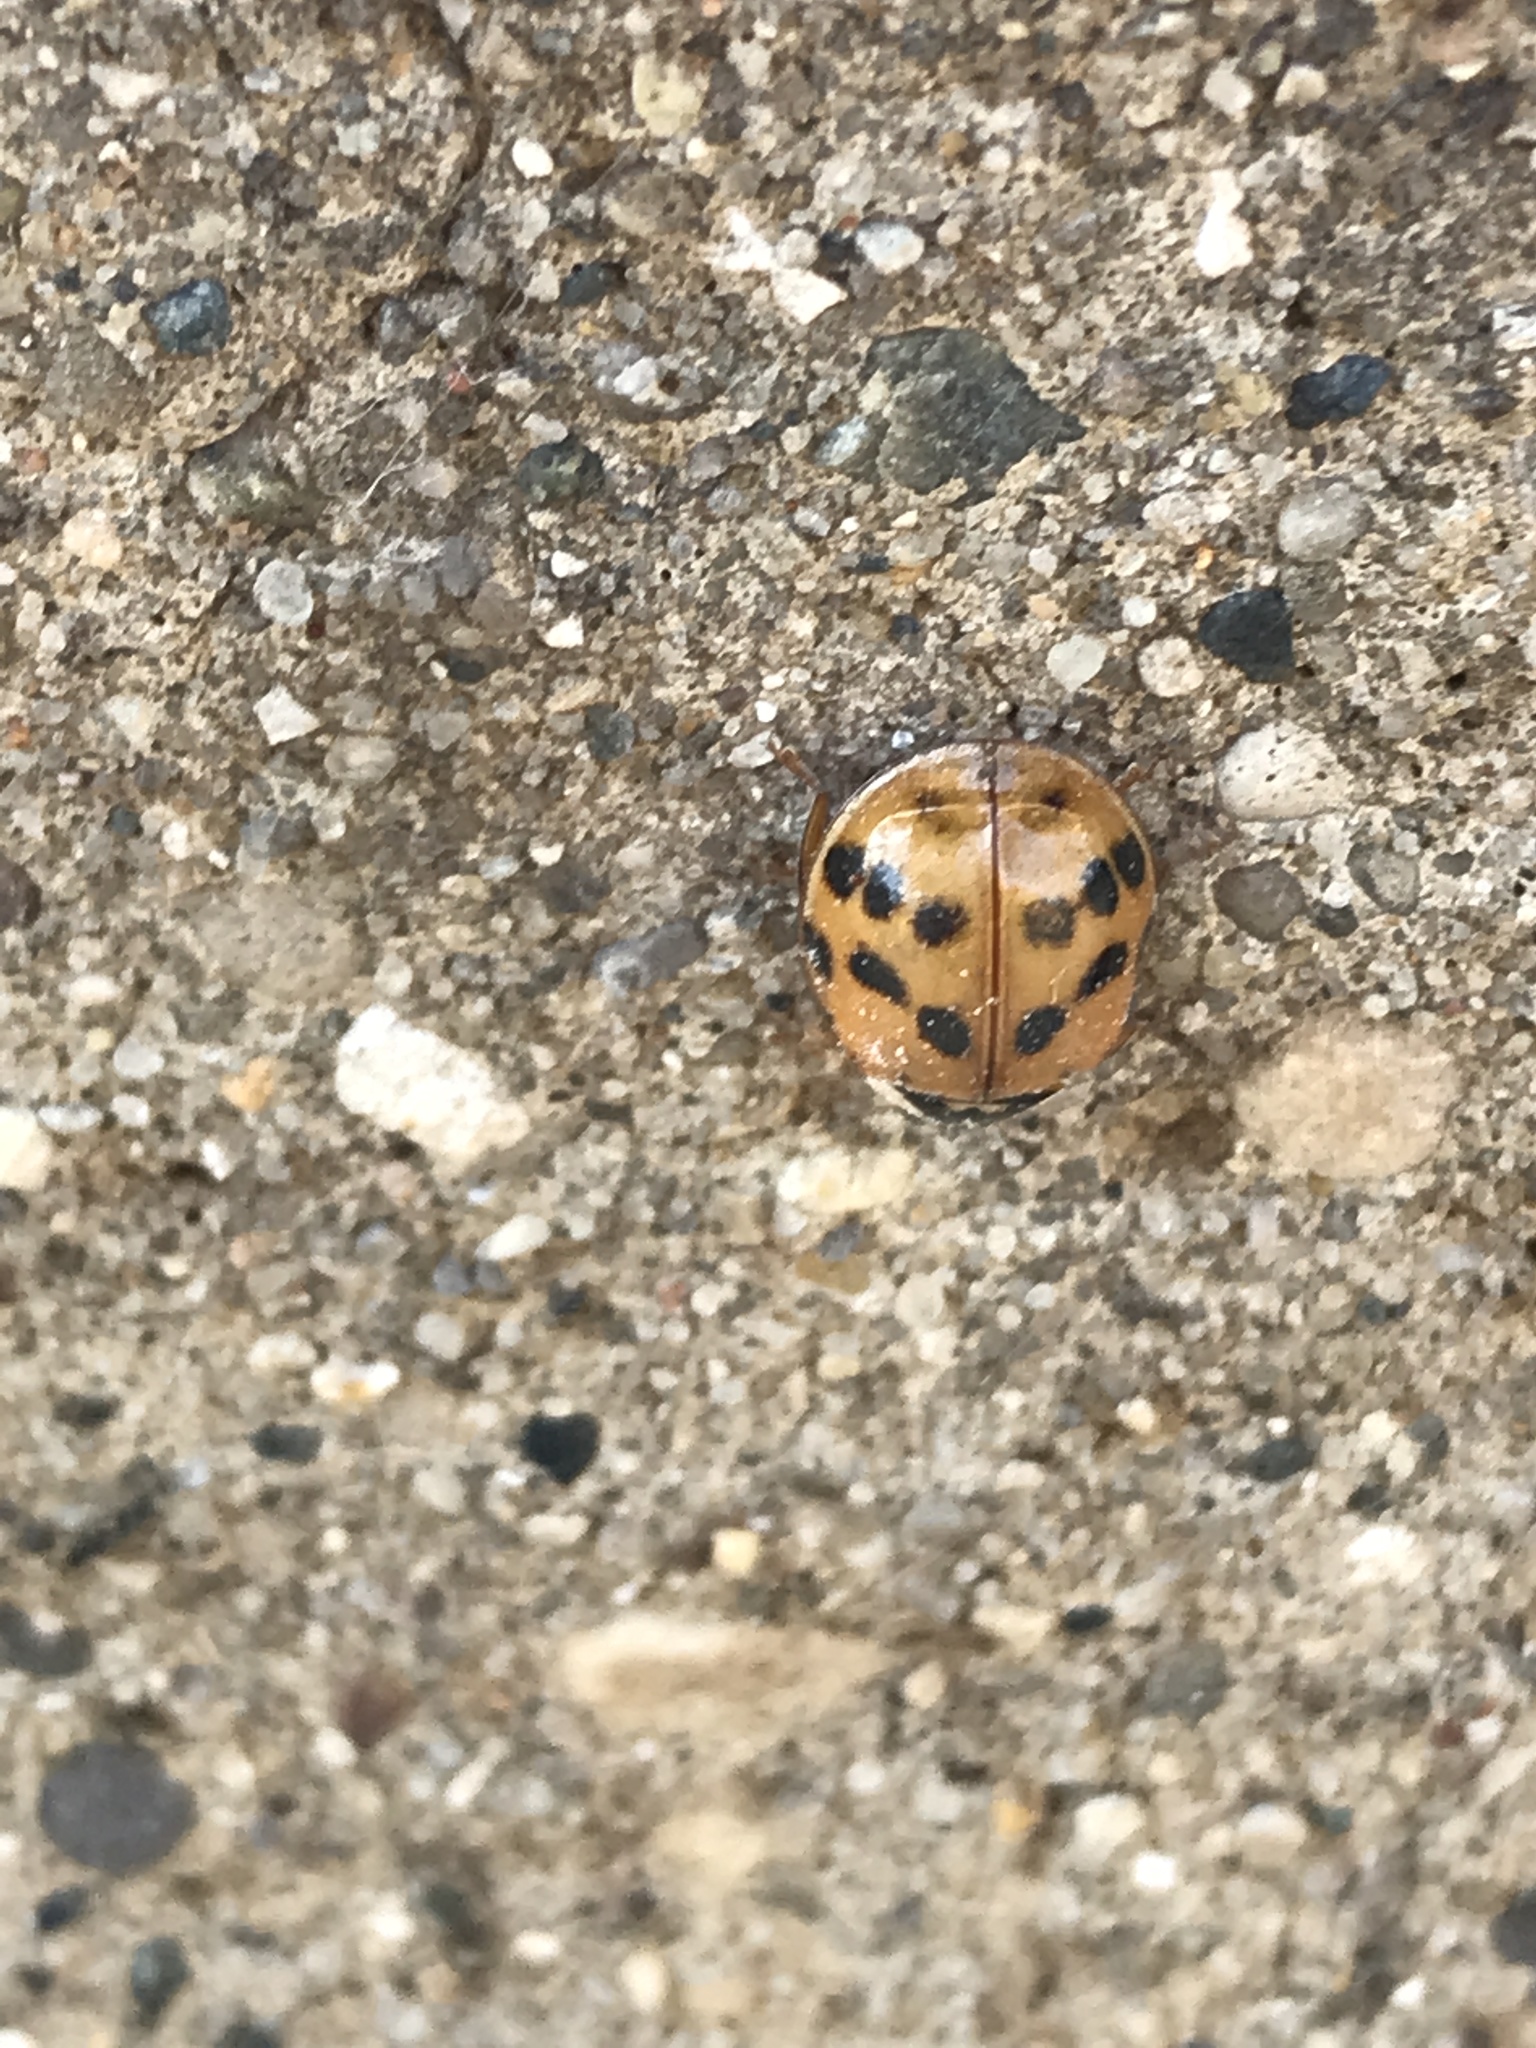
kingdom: Animalia
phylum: Arthropoda
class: Insecta
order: Coleoptera
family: Coccinellidae
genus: Harmonia
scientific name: Harmonia axyridis
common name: Harlequin ladybird
